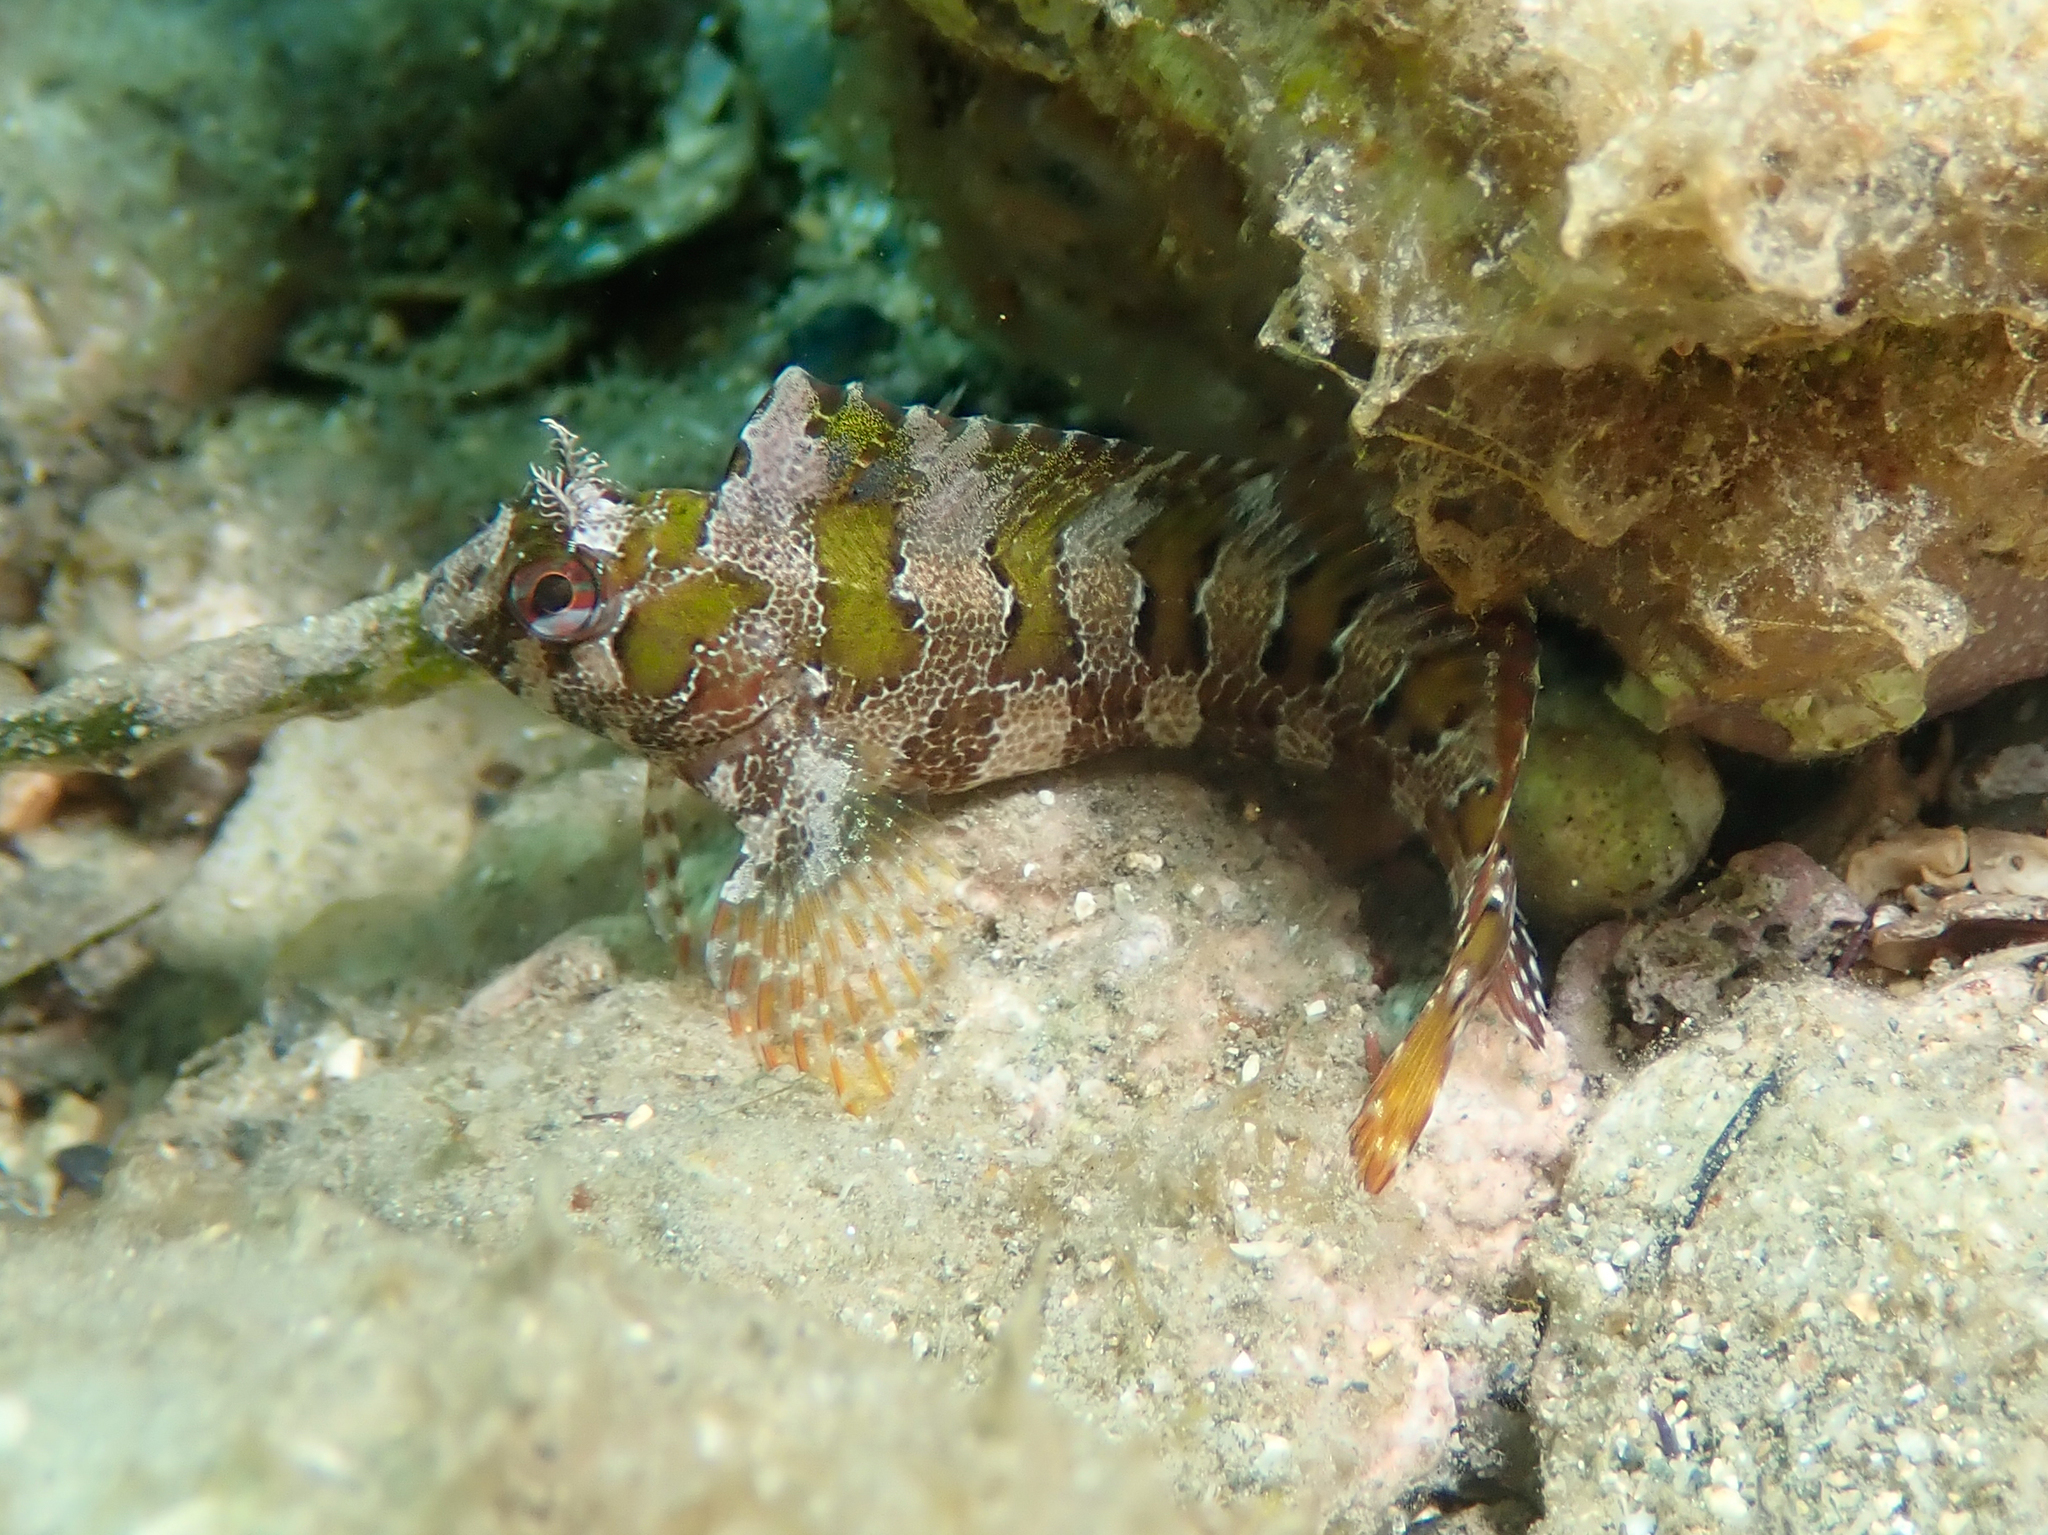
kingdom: Animalia
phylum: Chordata
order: Perciformes
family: Blenniidae
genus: Parablennius
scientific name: Parablennius gattorugine
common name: Tompot blenny
